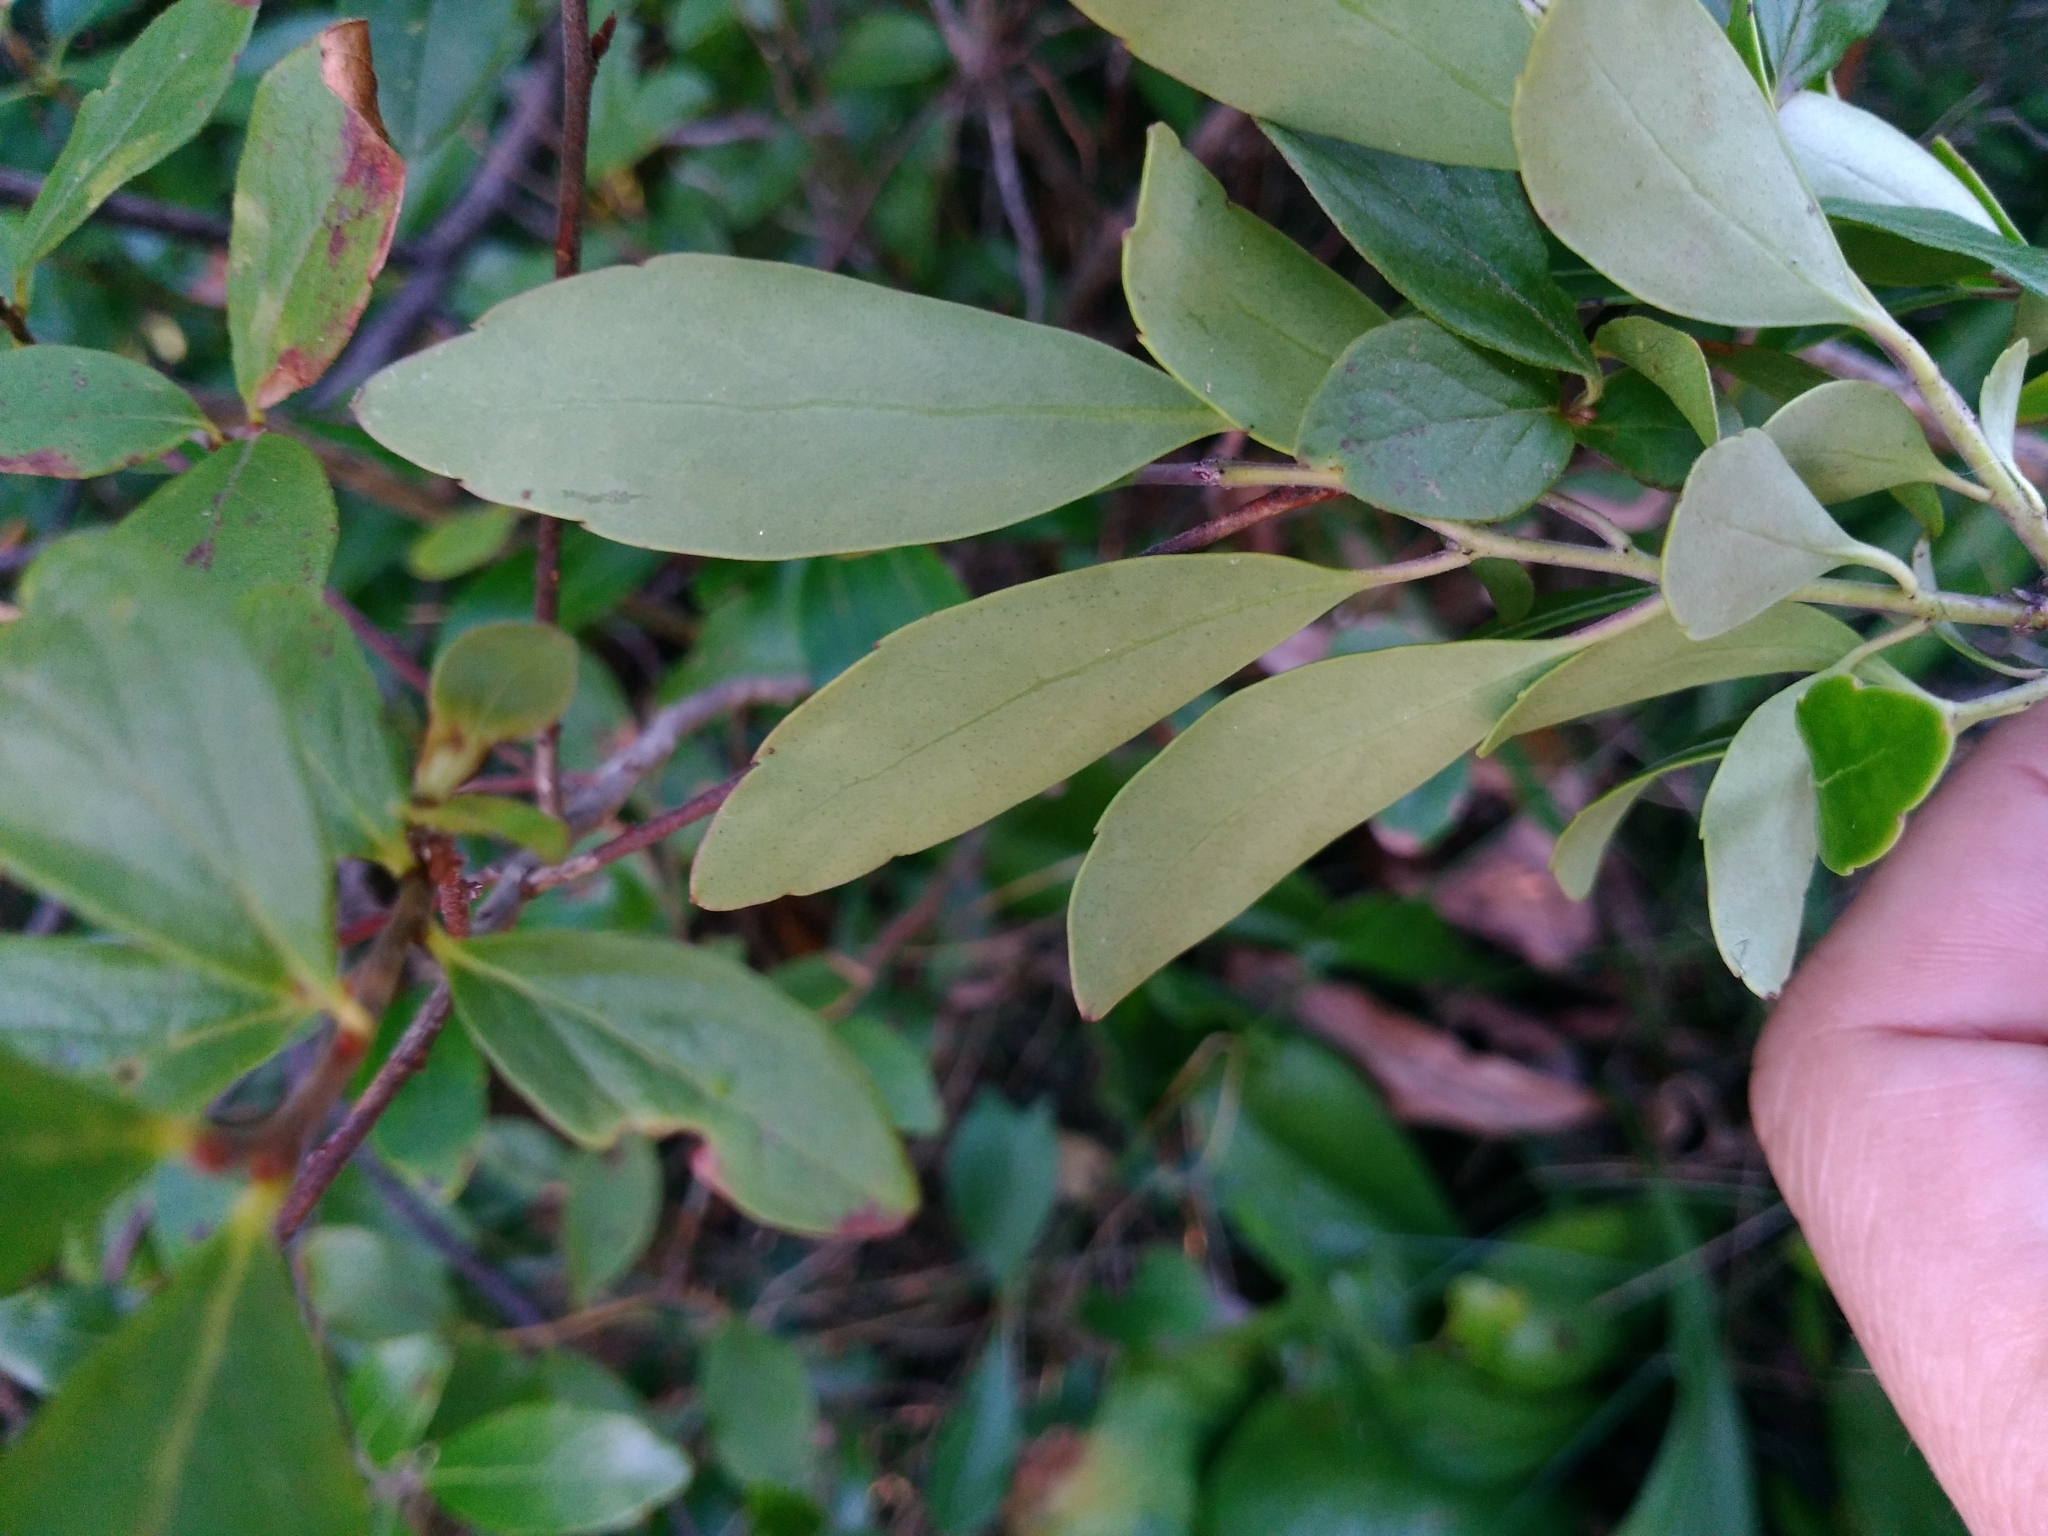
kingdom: Plantae
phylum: Tracheophyta
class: Magnoliopsida
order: Aquifoliales
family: Aquifoliaceae
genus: Ilex
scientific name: Ilex glabra
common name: Bitter gallberry
